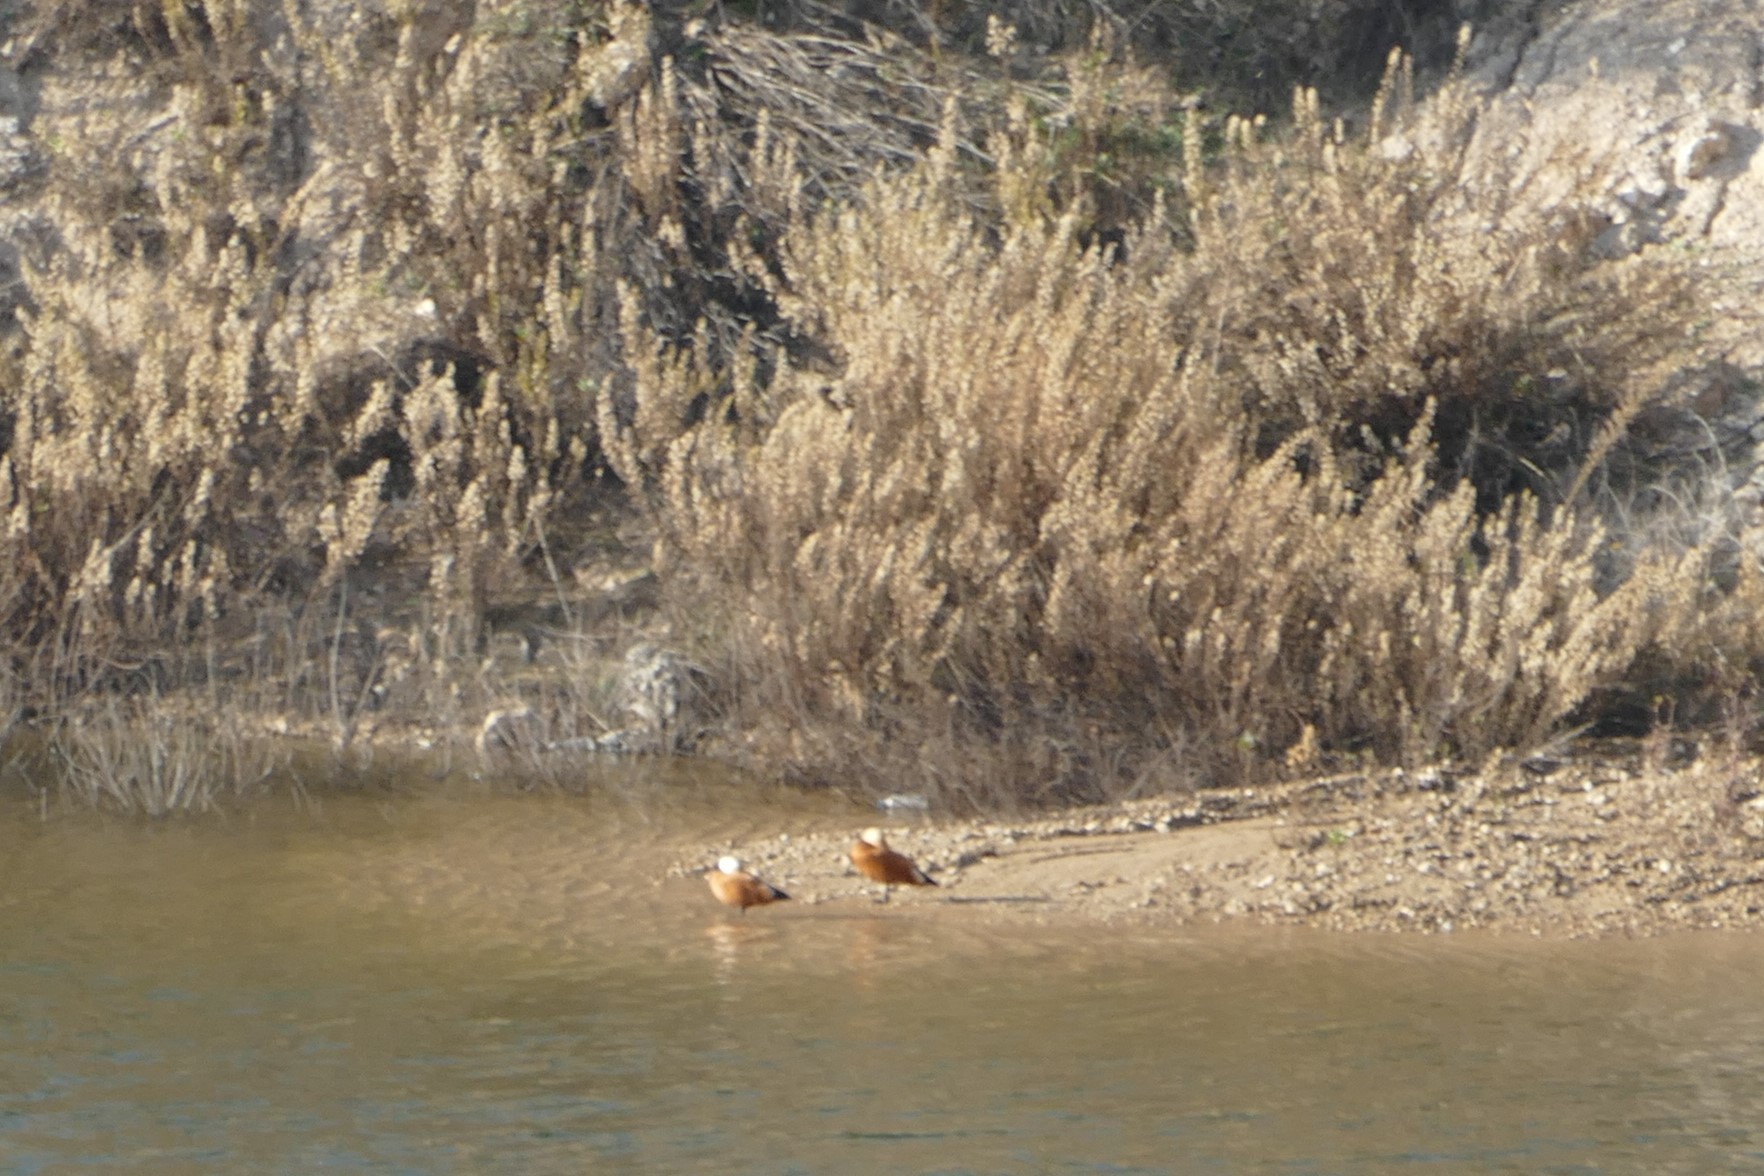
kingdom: Animalia
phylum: Chordata
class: Aves
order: Anseriformes
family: Anatidae
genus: Tadorna
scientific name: Tadorna ferruginea
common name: Ruddy shelduck
